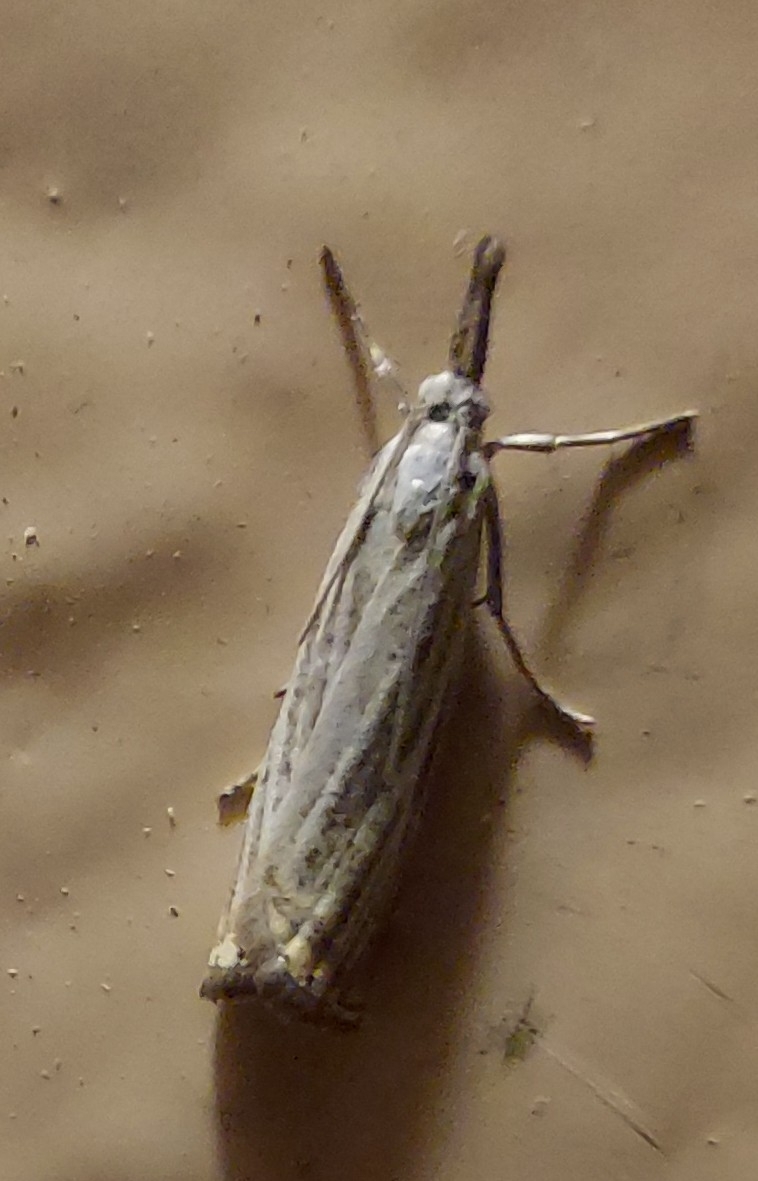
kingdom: Animalia
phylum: Arthropoda
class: Insecta
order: Lepidoptera
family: Crambidae
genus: Chrysoteuchia
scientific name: Chrysoteuchia culmella
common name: Garden grass-veneer
